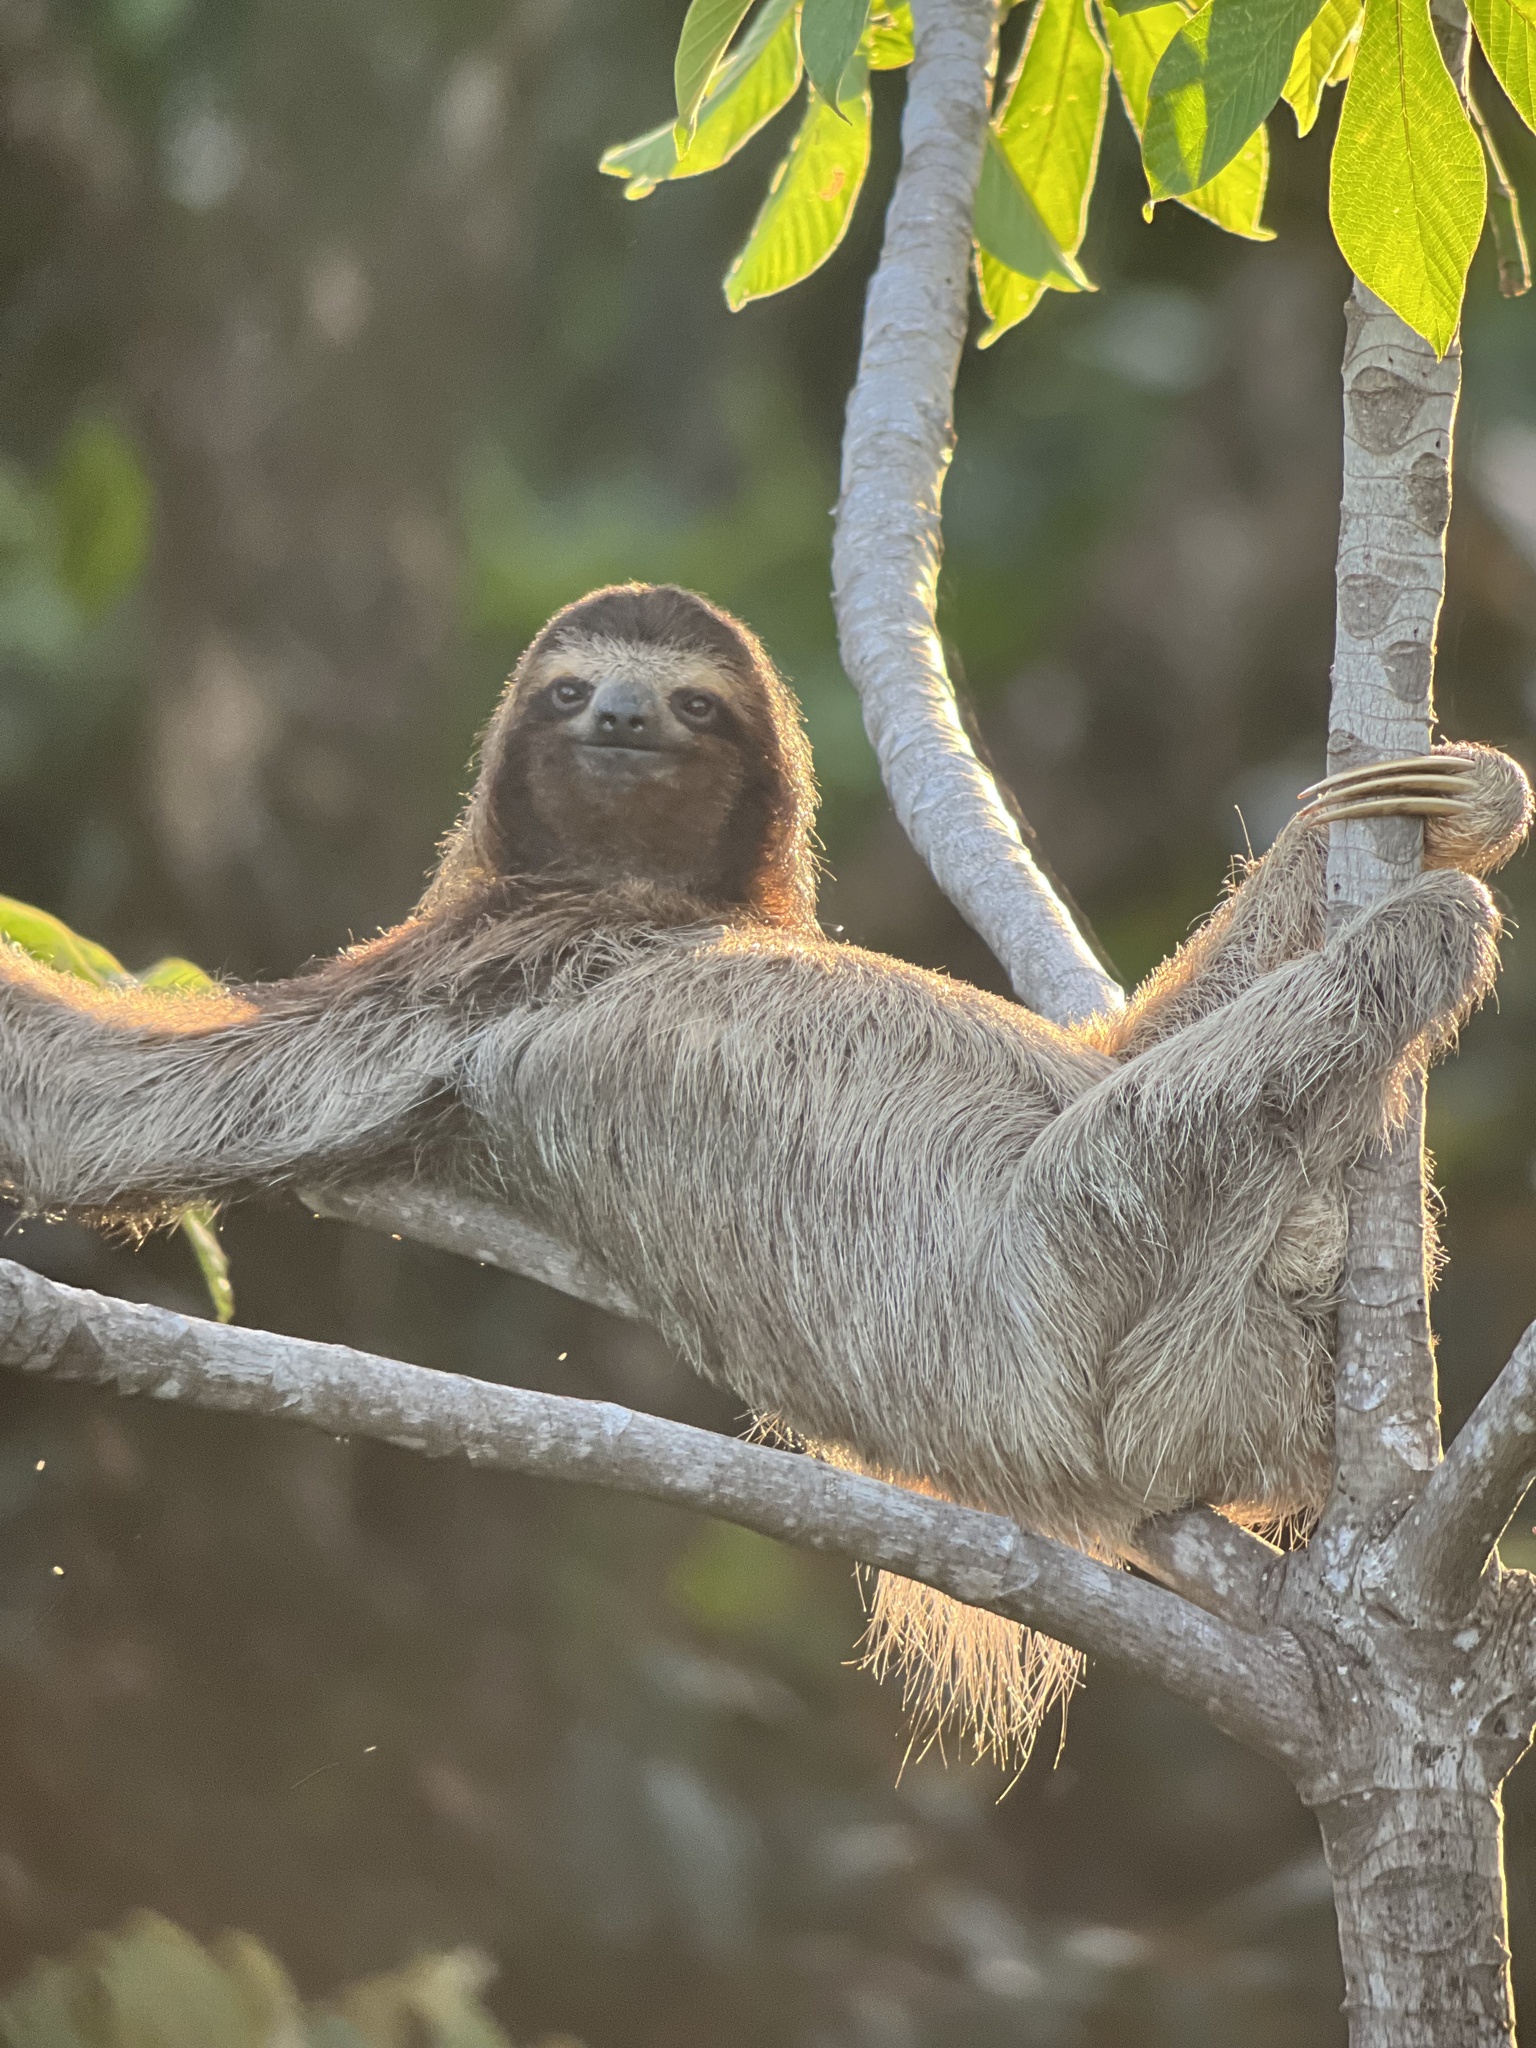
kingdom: Animalia
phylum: Chordata
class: Mammalia
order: Pilosa
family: Bradypodidae
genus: Bradypus
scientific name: Bradypus variegatus
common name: Brown-throated three-toed sloth
